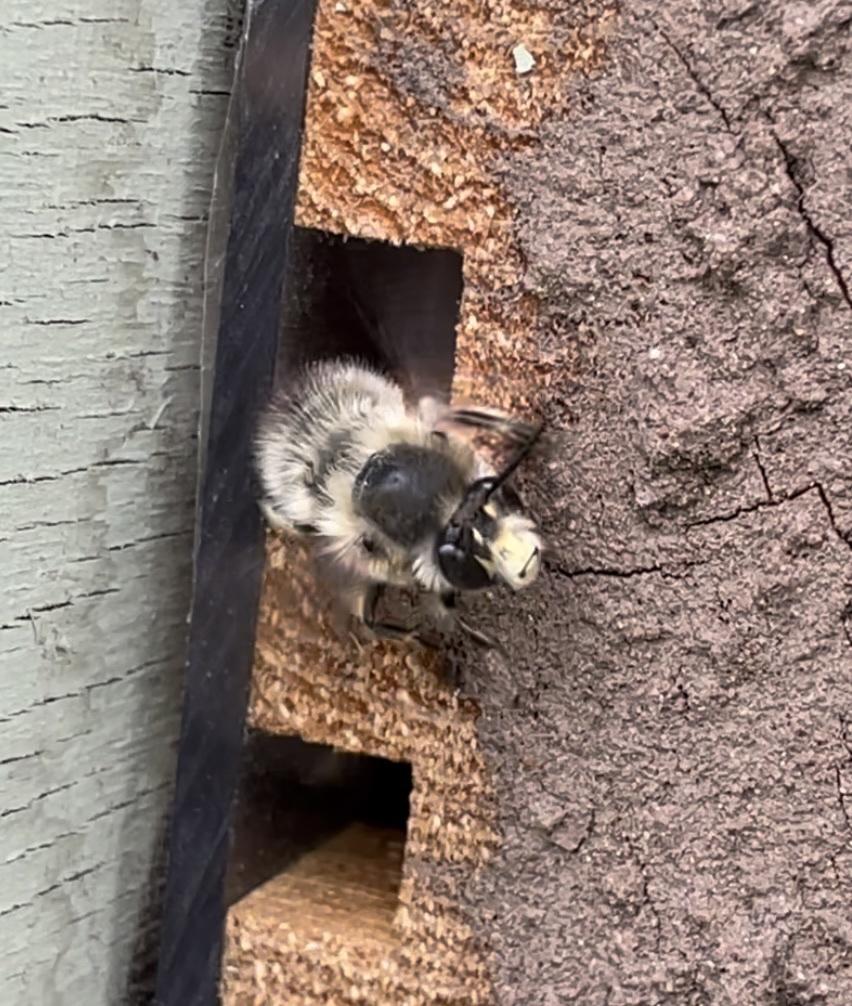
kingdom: Animalia
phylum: Arthropoda
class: Insecta
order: Hymenoptera
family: Apidae
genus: Anthophora
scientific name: Anthophora plumipes
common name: Hairy-footed flower bee
